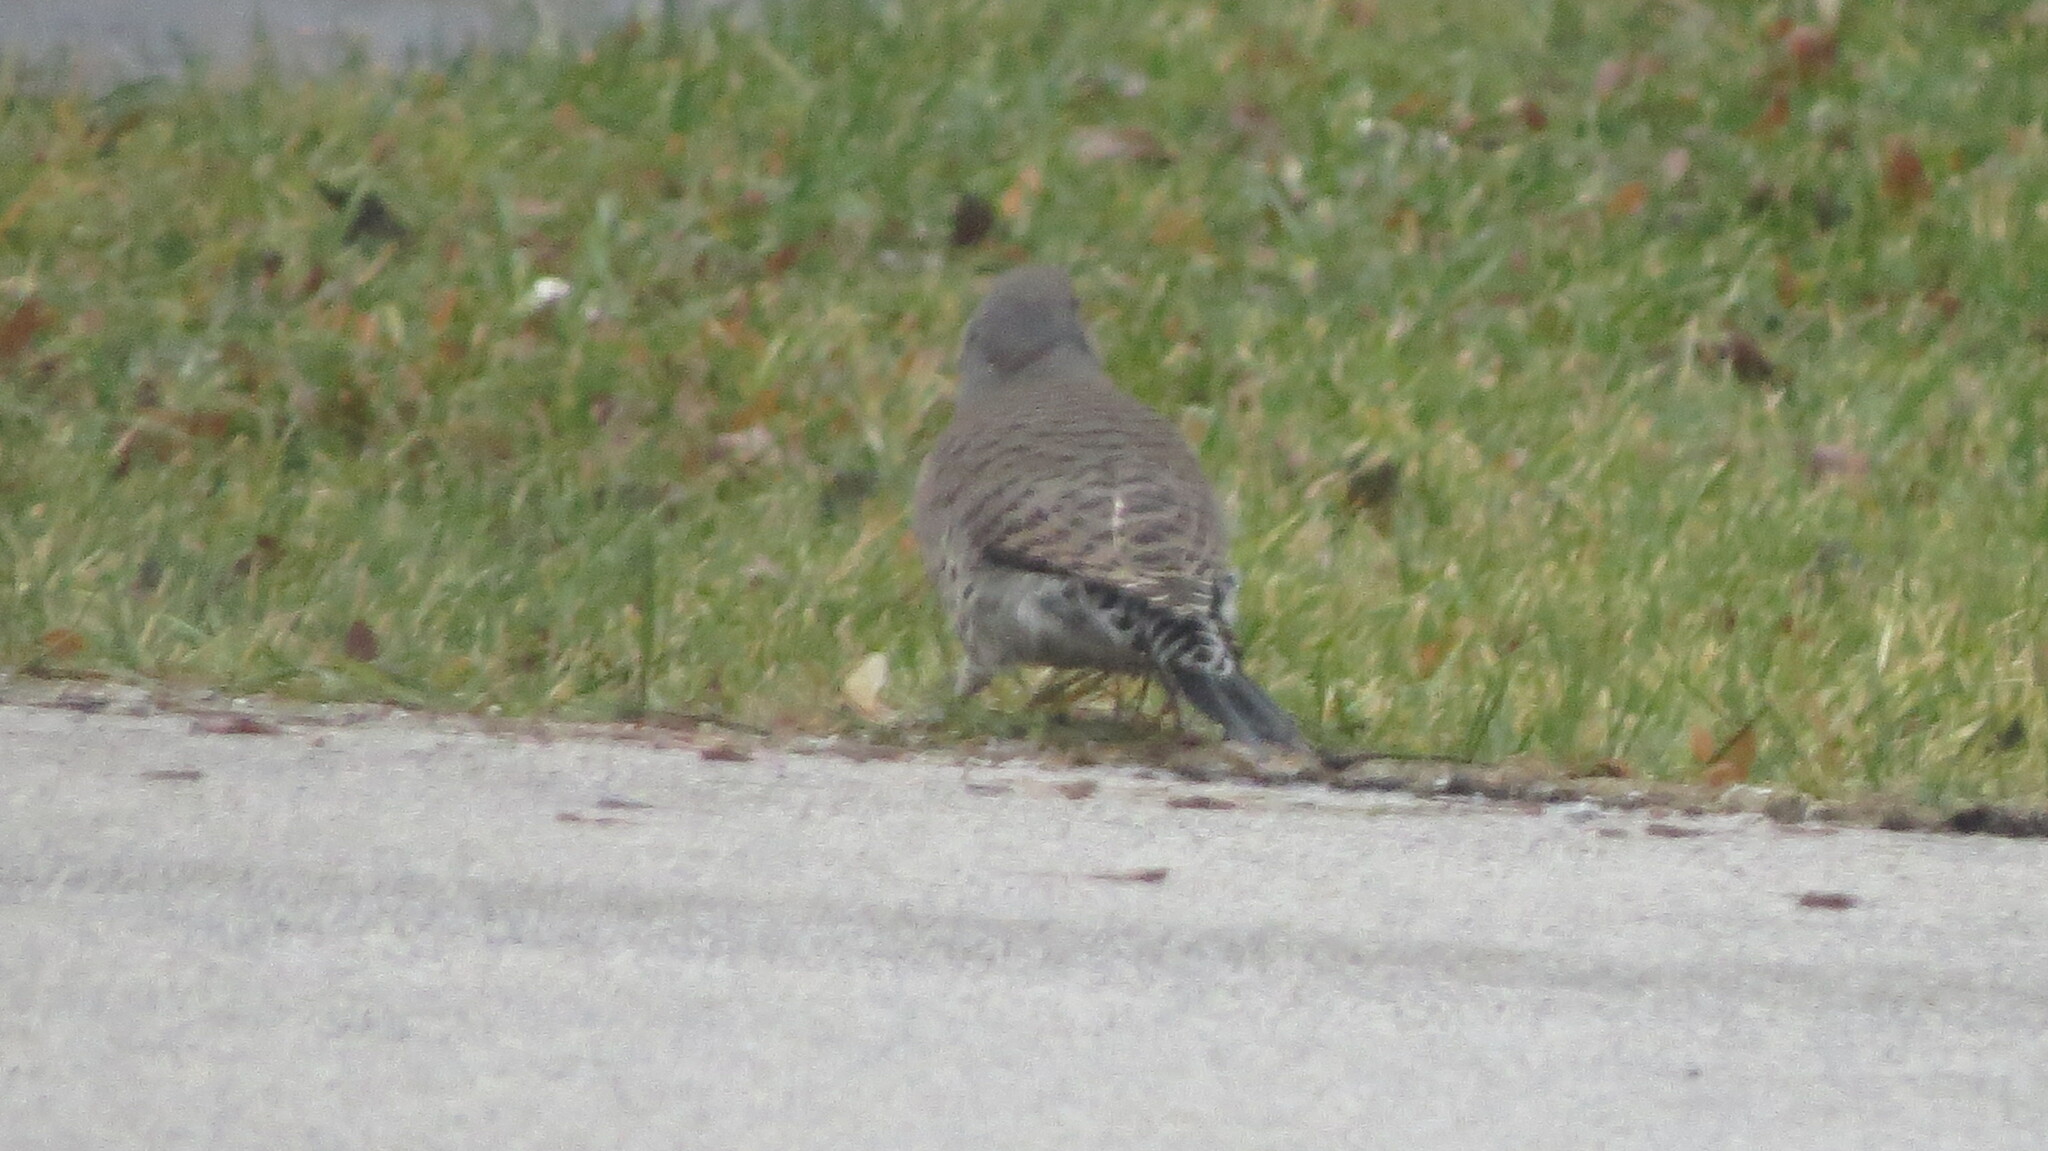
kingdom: Animalia
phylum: Chordata
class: Aves
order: Piciformes
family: Picidae
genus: Colaptes
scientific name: Colaptes
